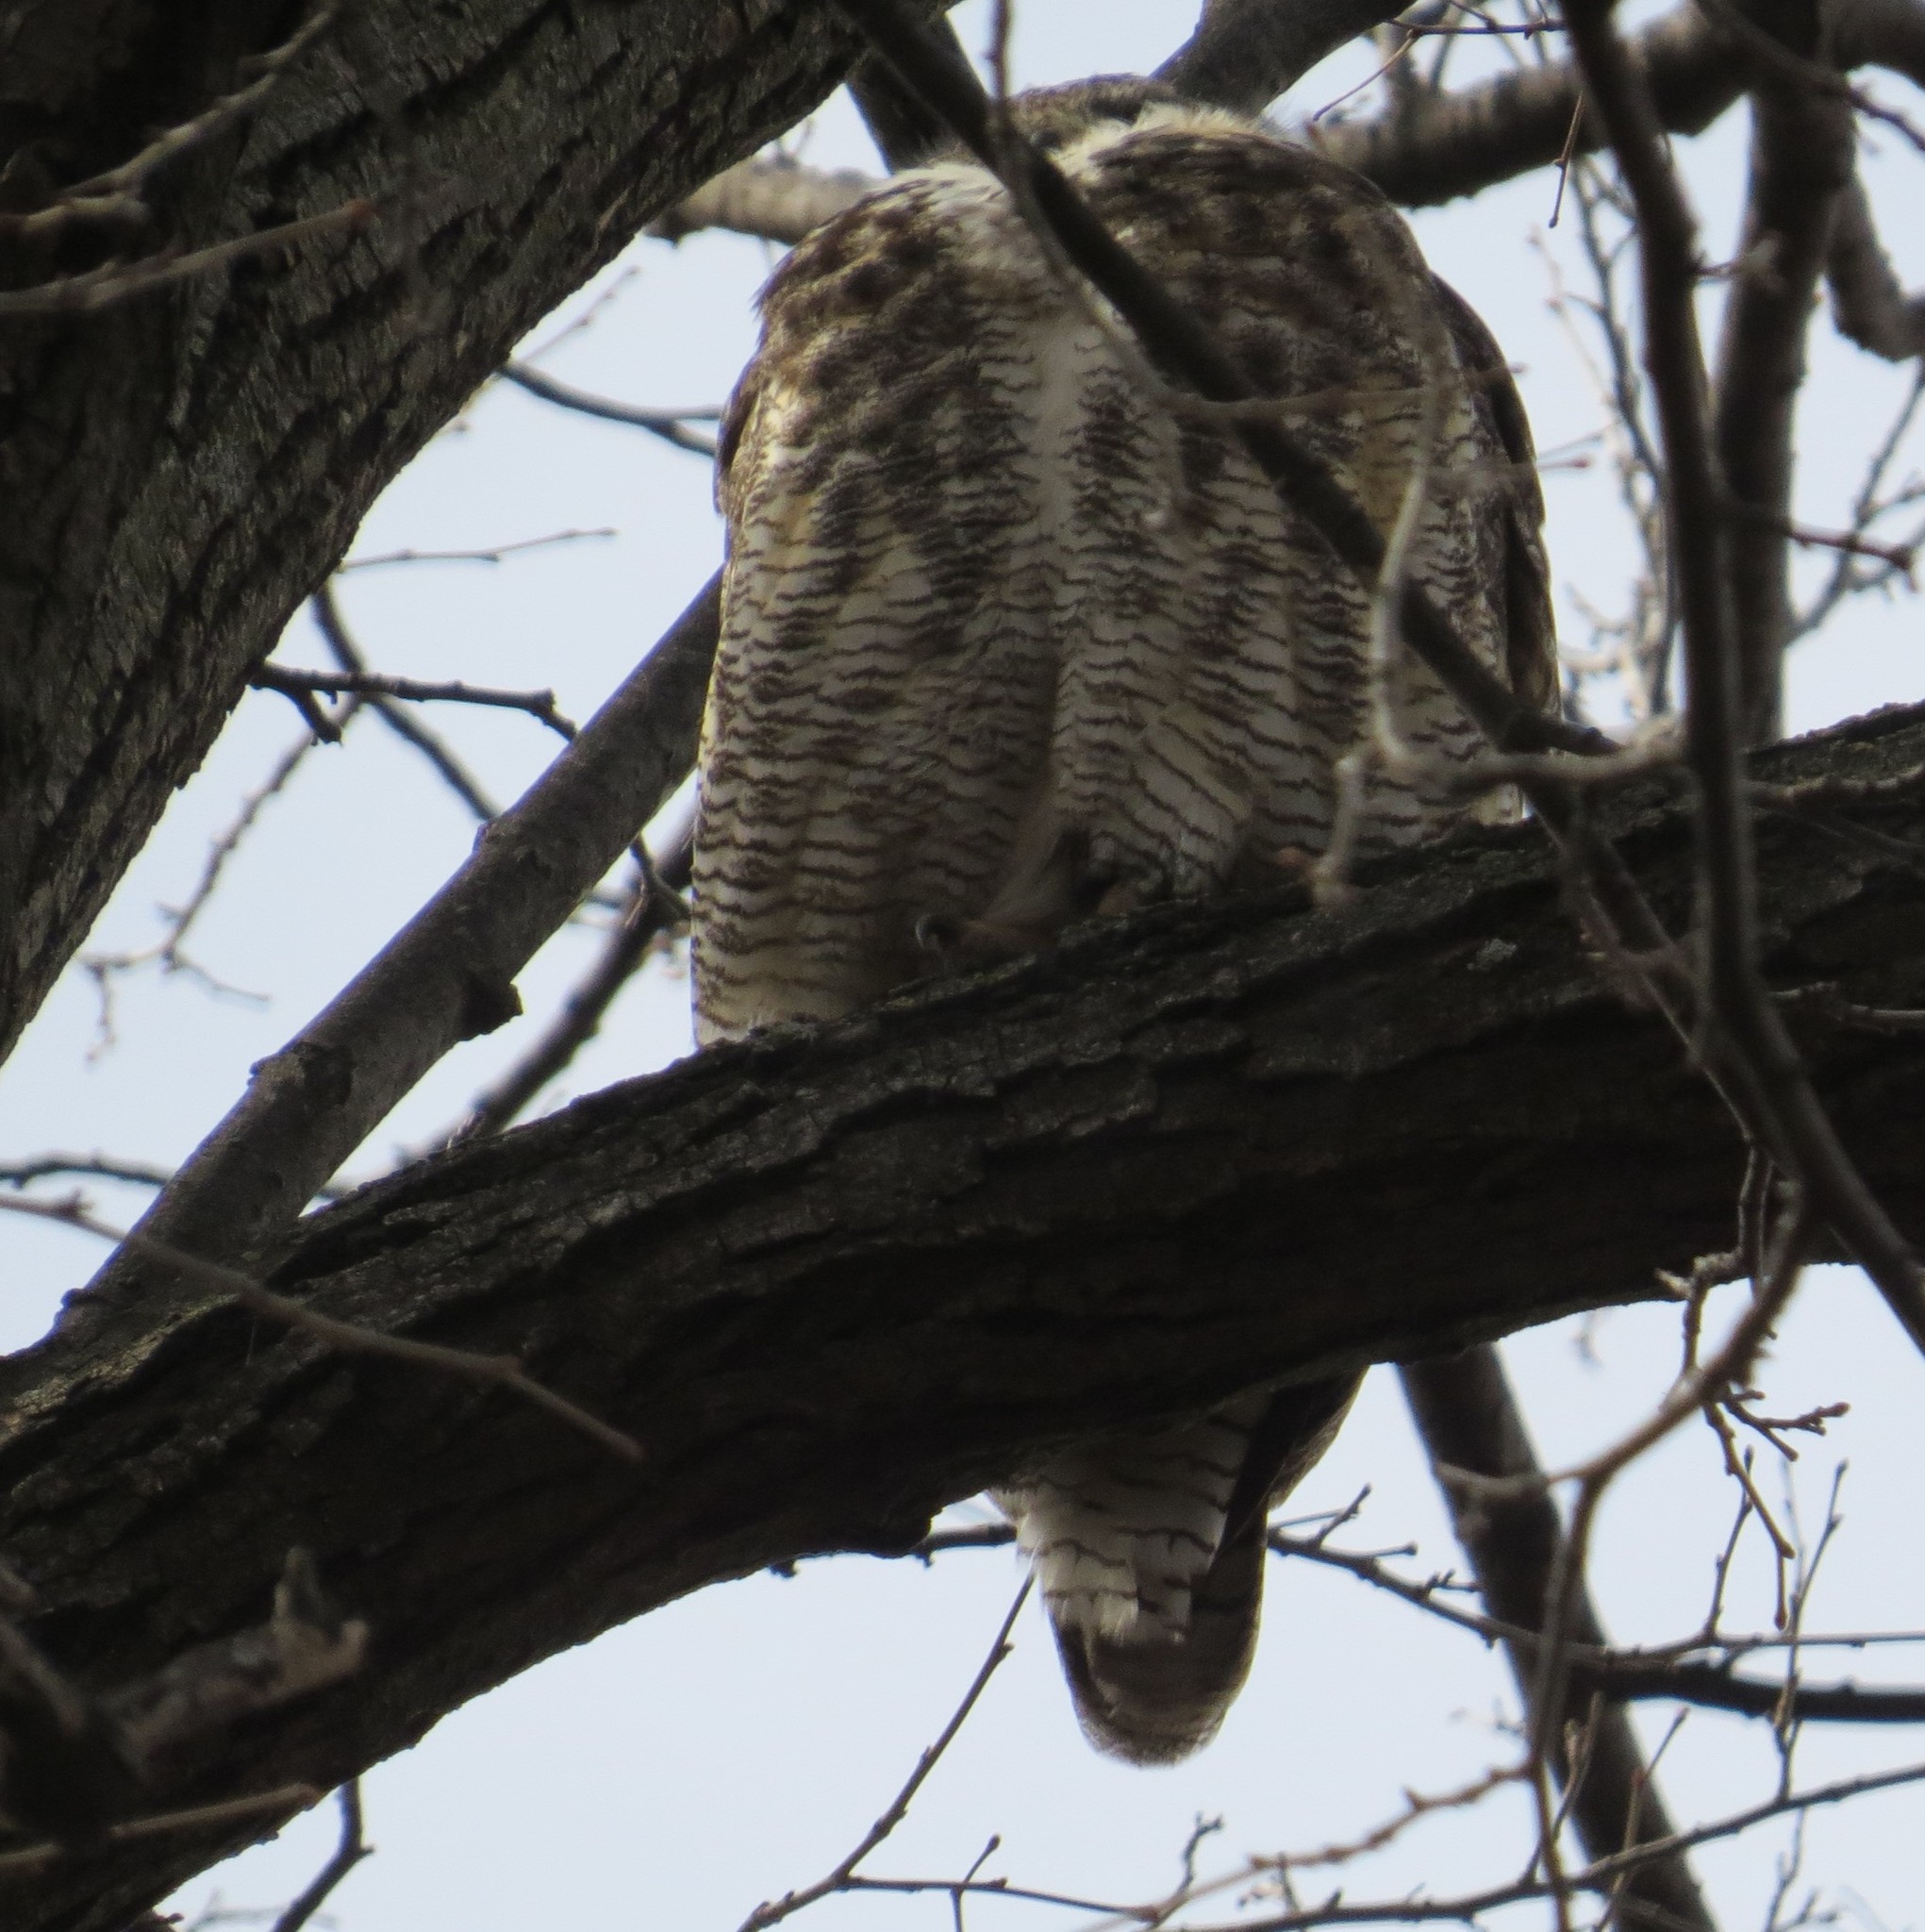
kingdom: Animalia
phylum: Chordata
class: Aves
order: Strigiformes
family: Strigidae
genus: Bubo
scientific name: Bubo virginianus
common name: Great horned owl
